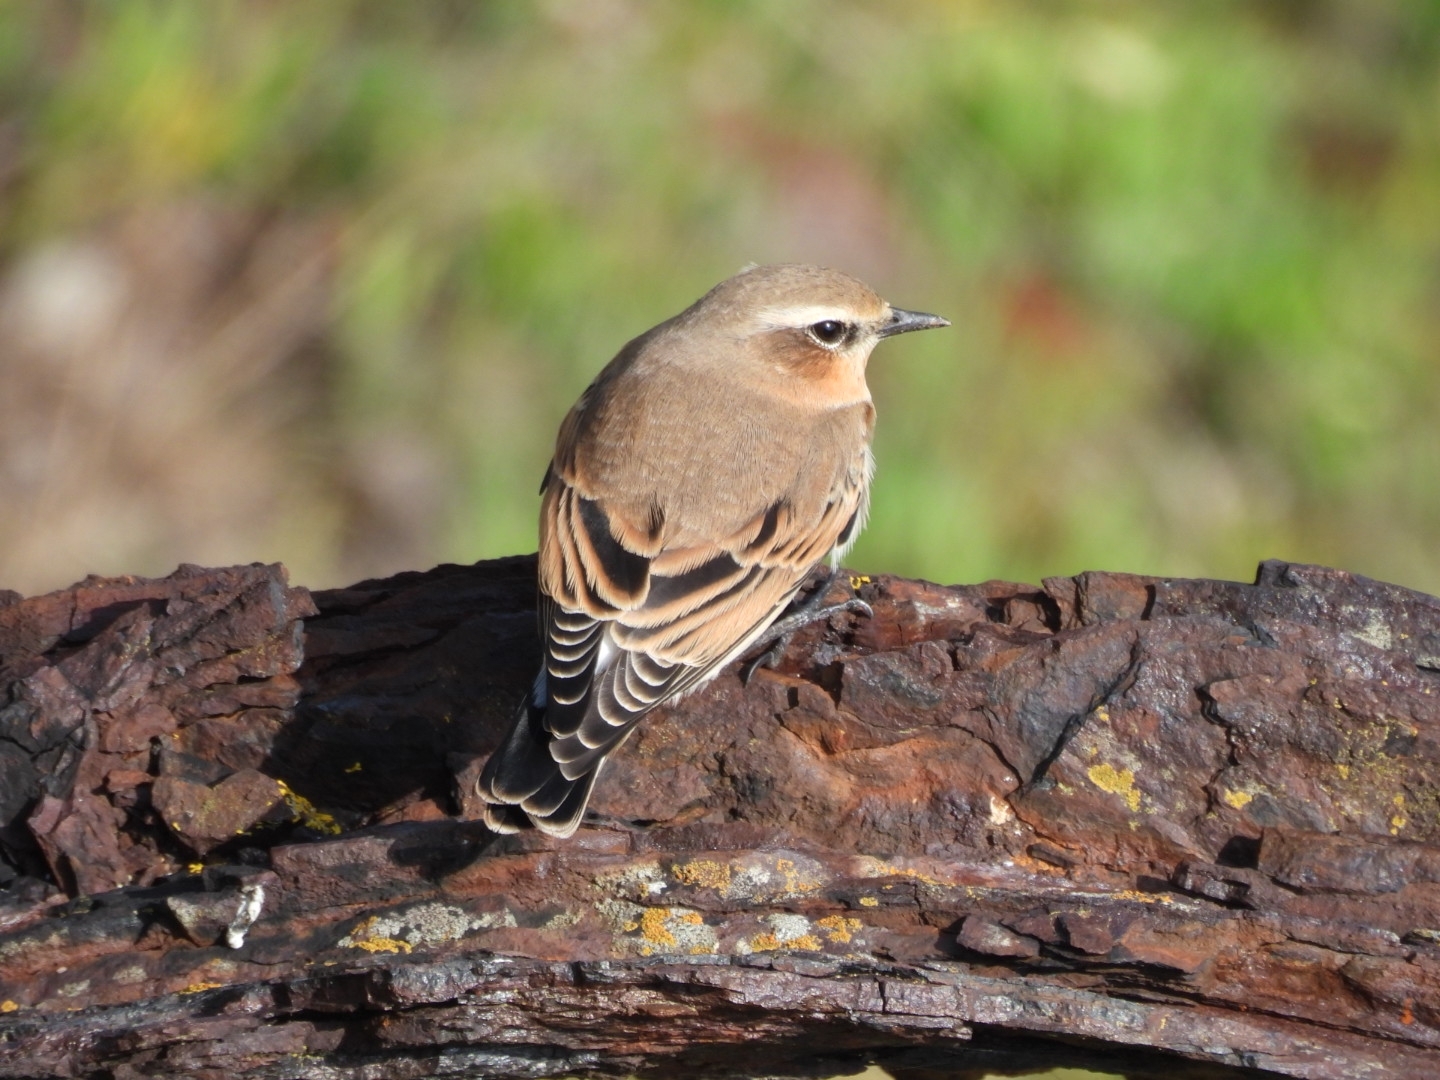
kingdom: Animalia
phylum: Chordata
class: Aves
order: Passeriformes
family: Muscicapidae
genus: Oenanthe
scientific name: Oenanthe oenanthe
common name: Northern wheatear
